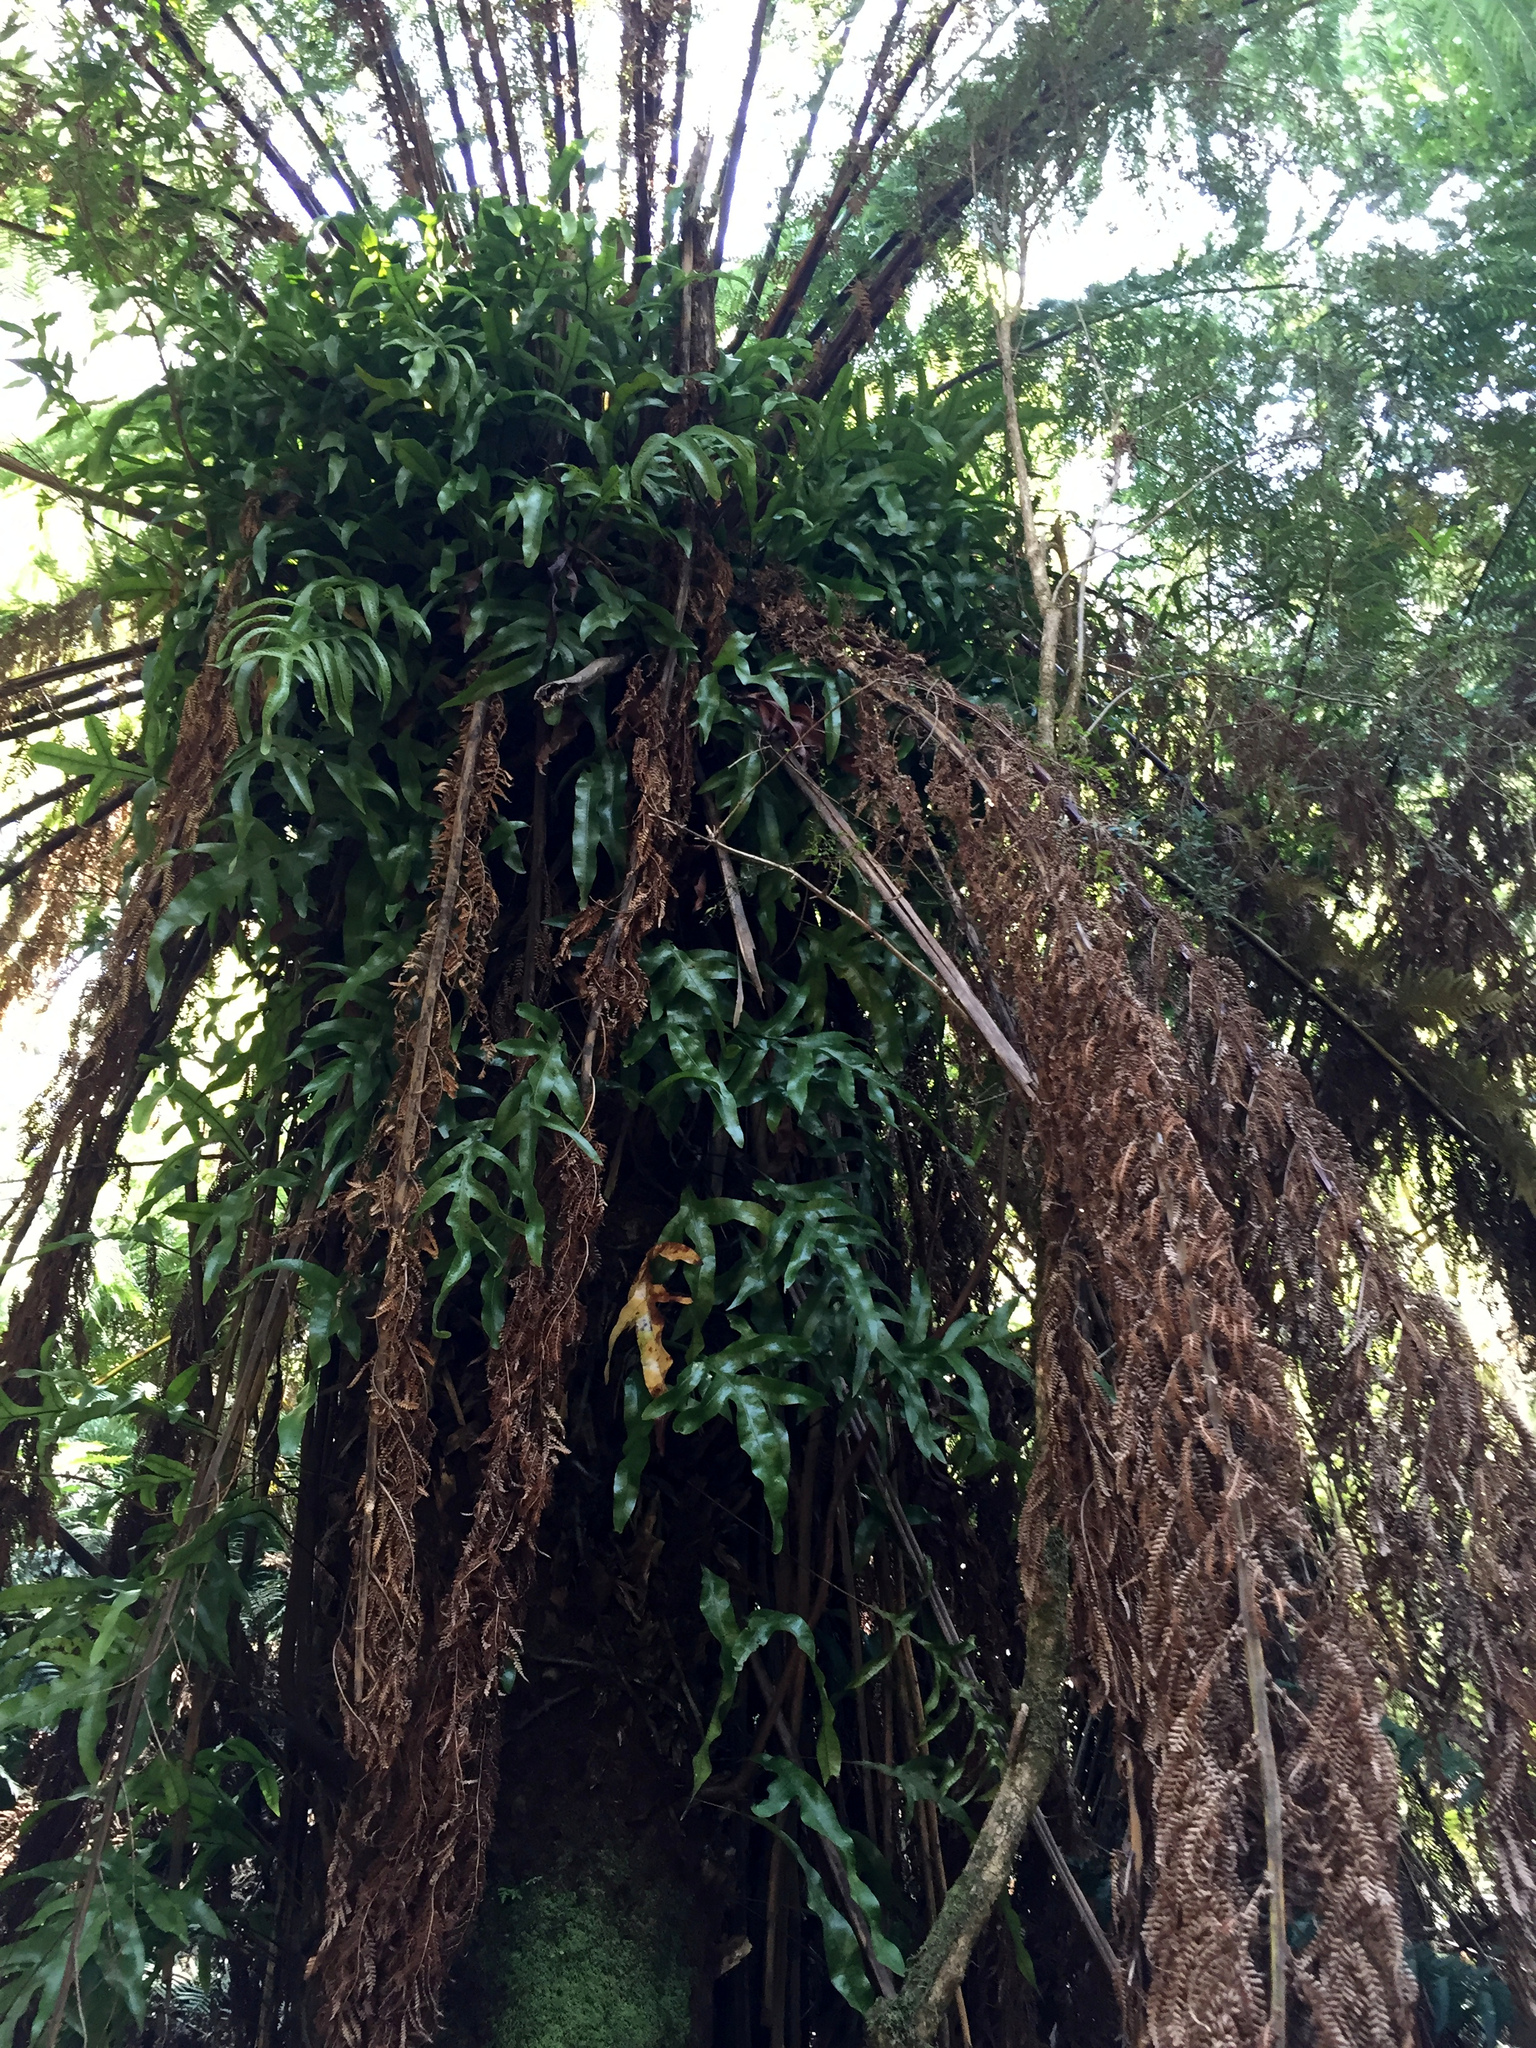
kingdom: Plantae
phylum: Tracheophyta
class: Polypodiopsida
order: Polypodiales
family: Polypodiaceae
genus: Lecanopteris
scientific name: Lecanopteris pustulata
